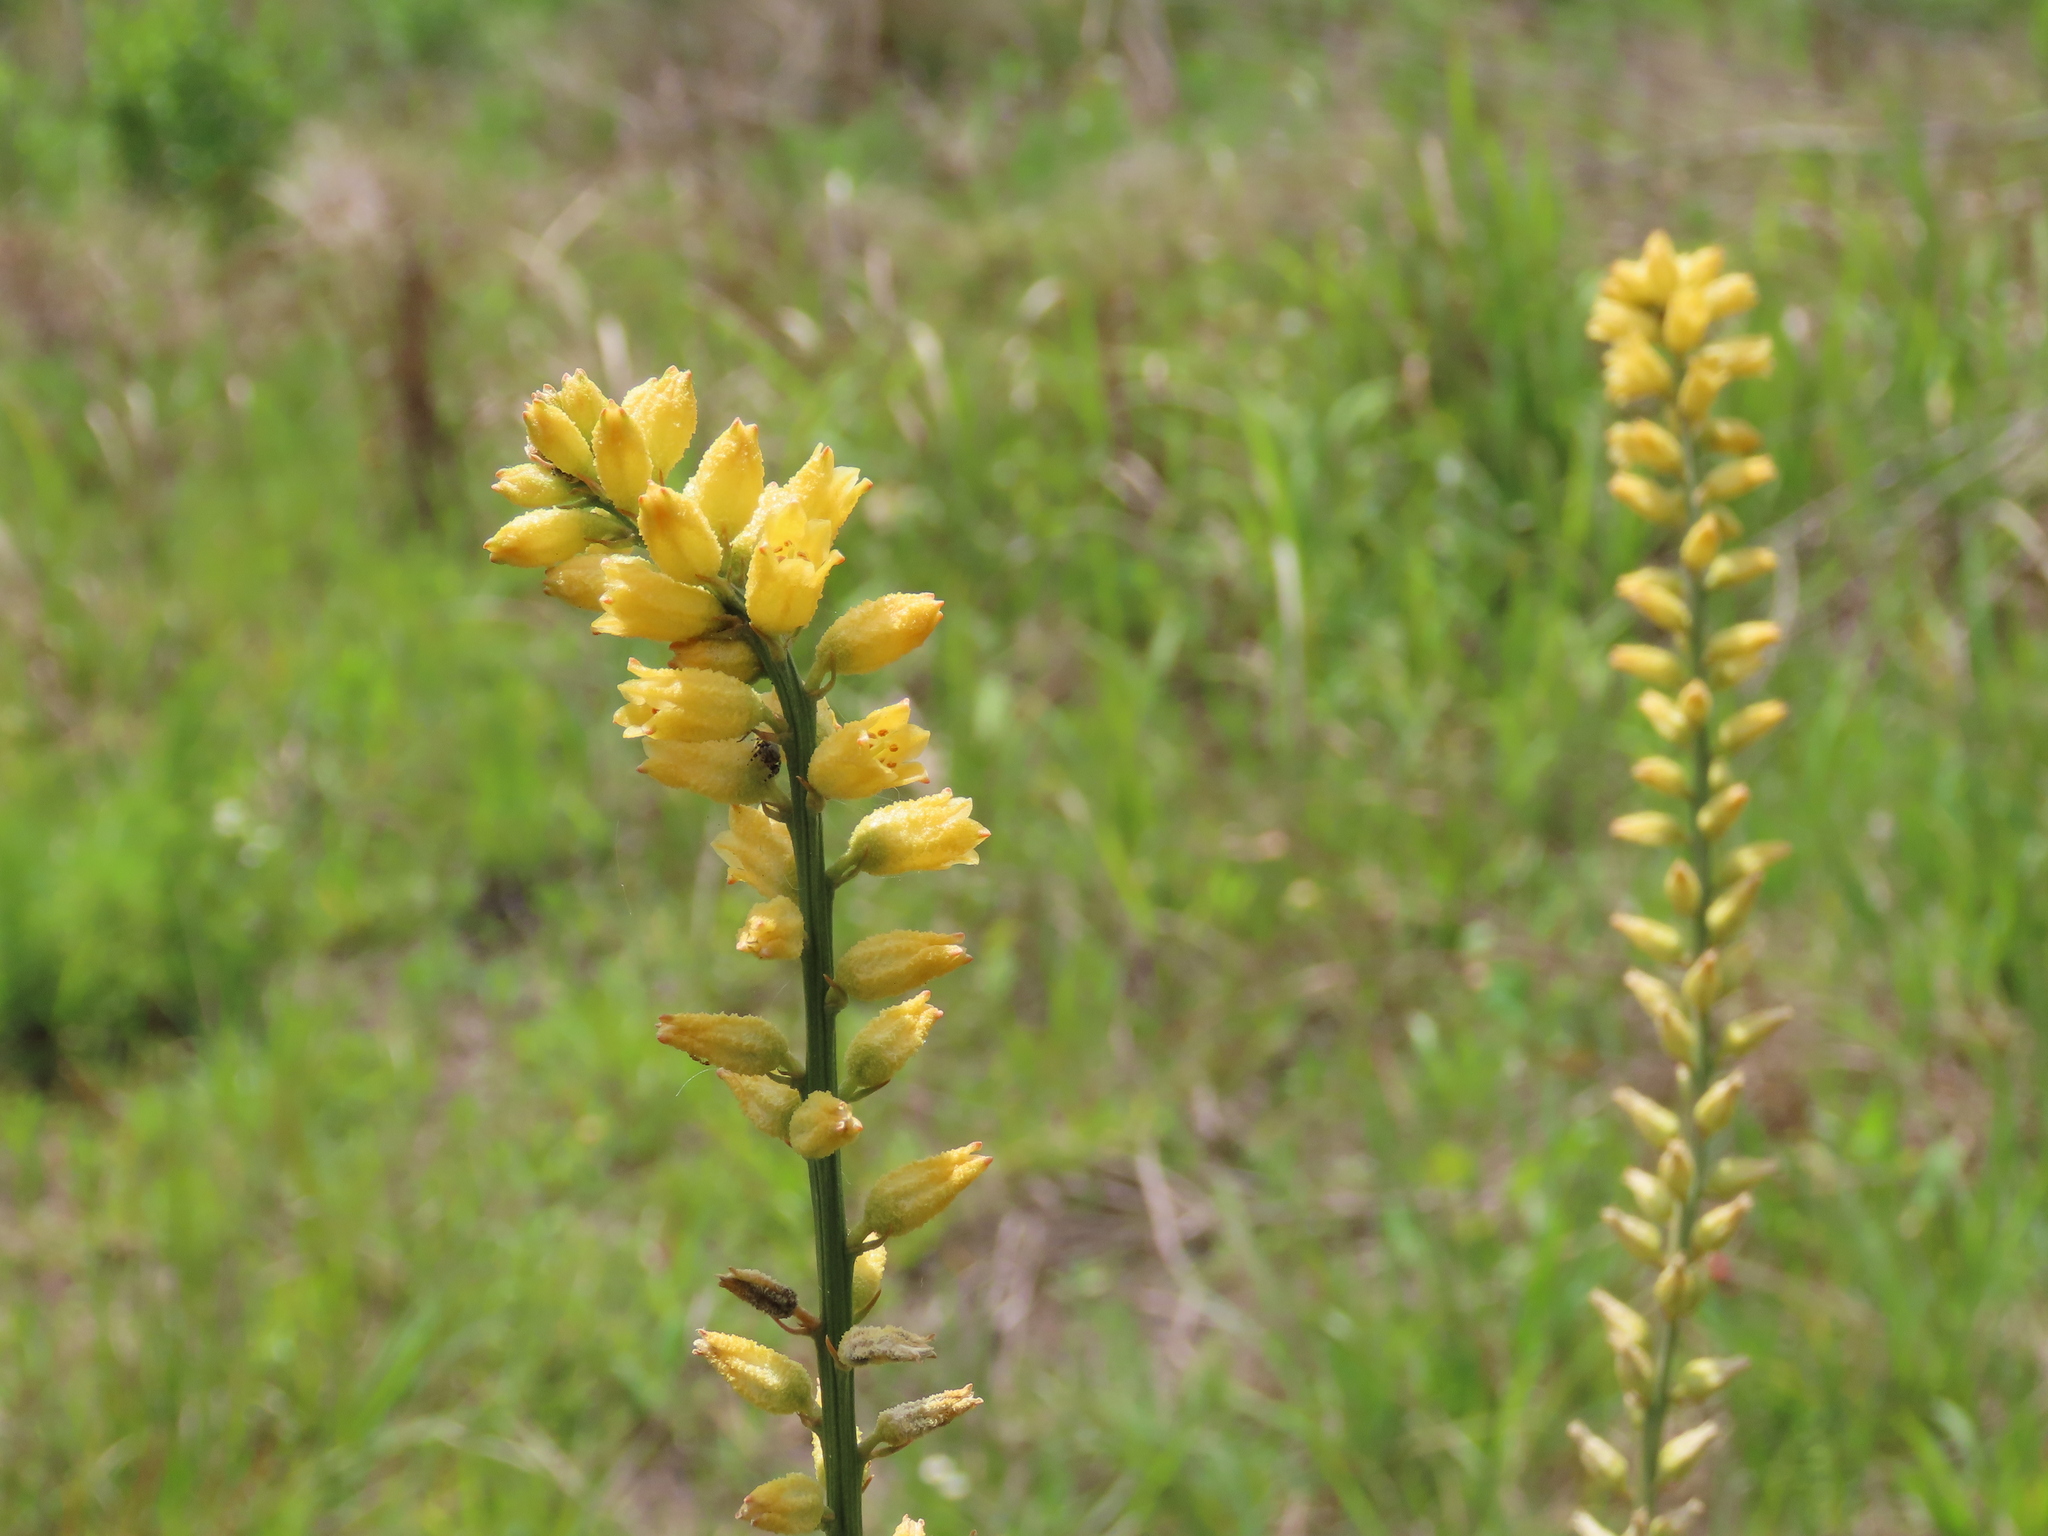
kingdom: Plantae
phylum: Tracheophyta
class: Liliopsida
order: Dioscoreales
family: Nartheciaceae
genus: Aletris
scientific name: Aletris lutea
